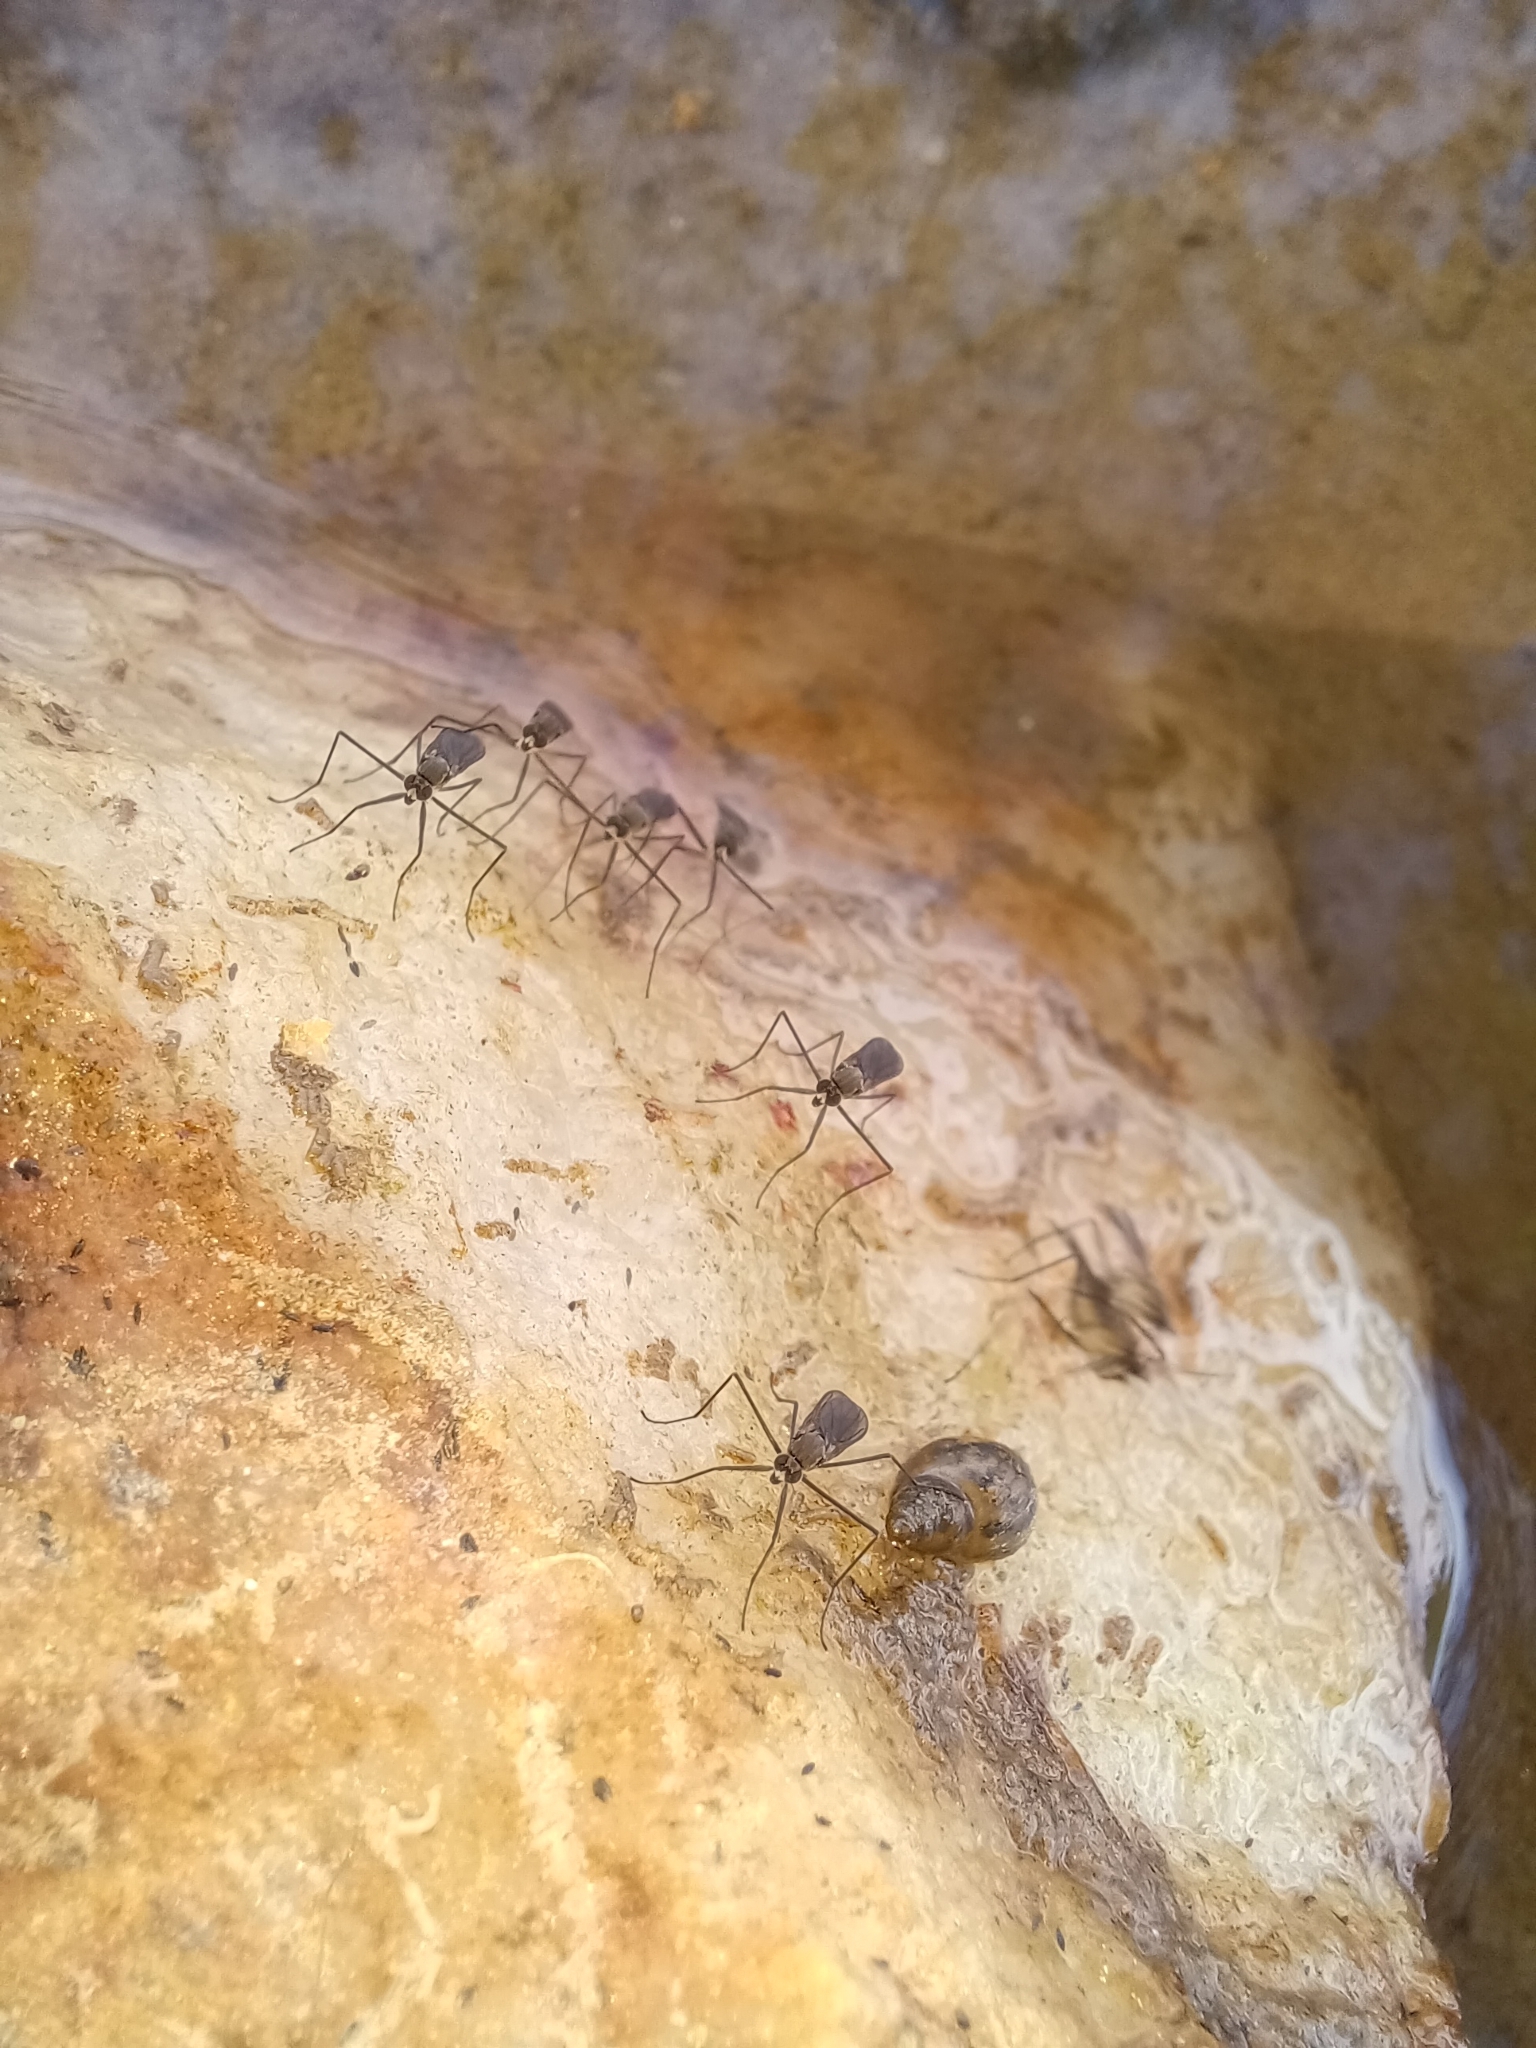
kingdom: Animalia
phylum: Arthropoda
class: Insecta
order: Diptera
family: Empididae
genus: Trichoclinocera
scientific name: Trichoclinocera pectinifemur
